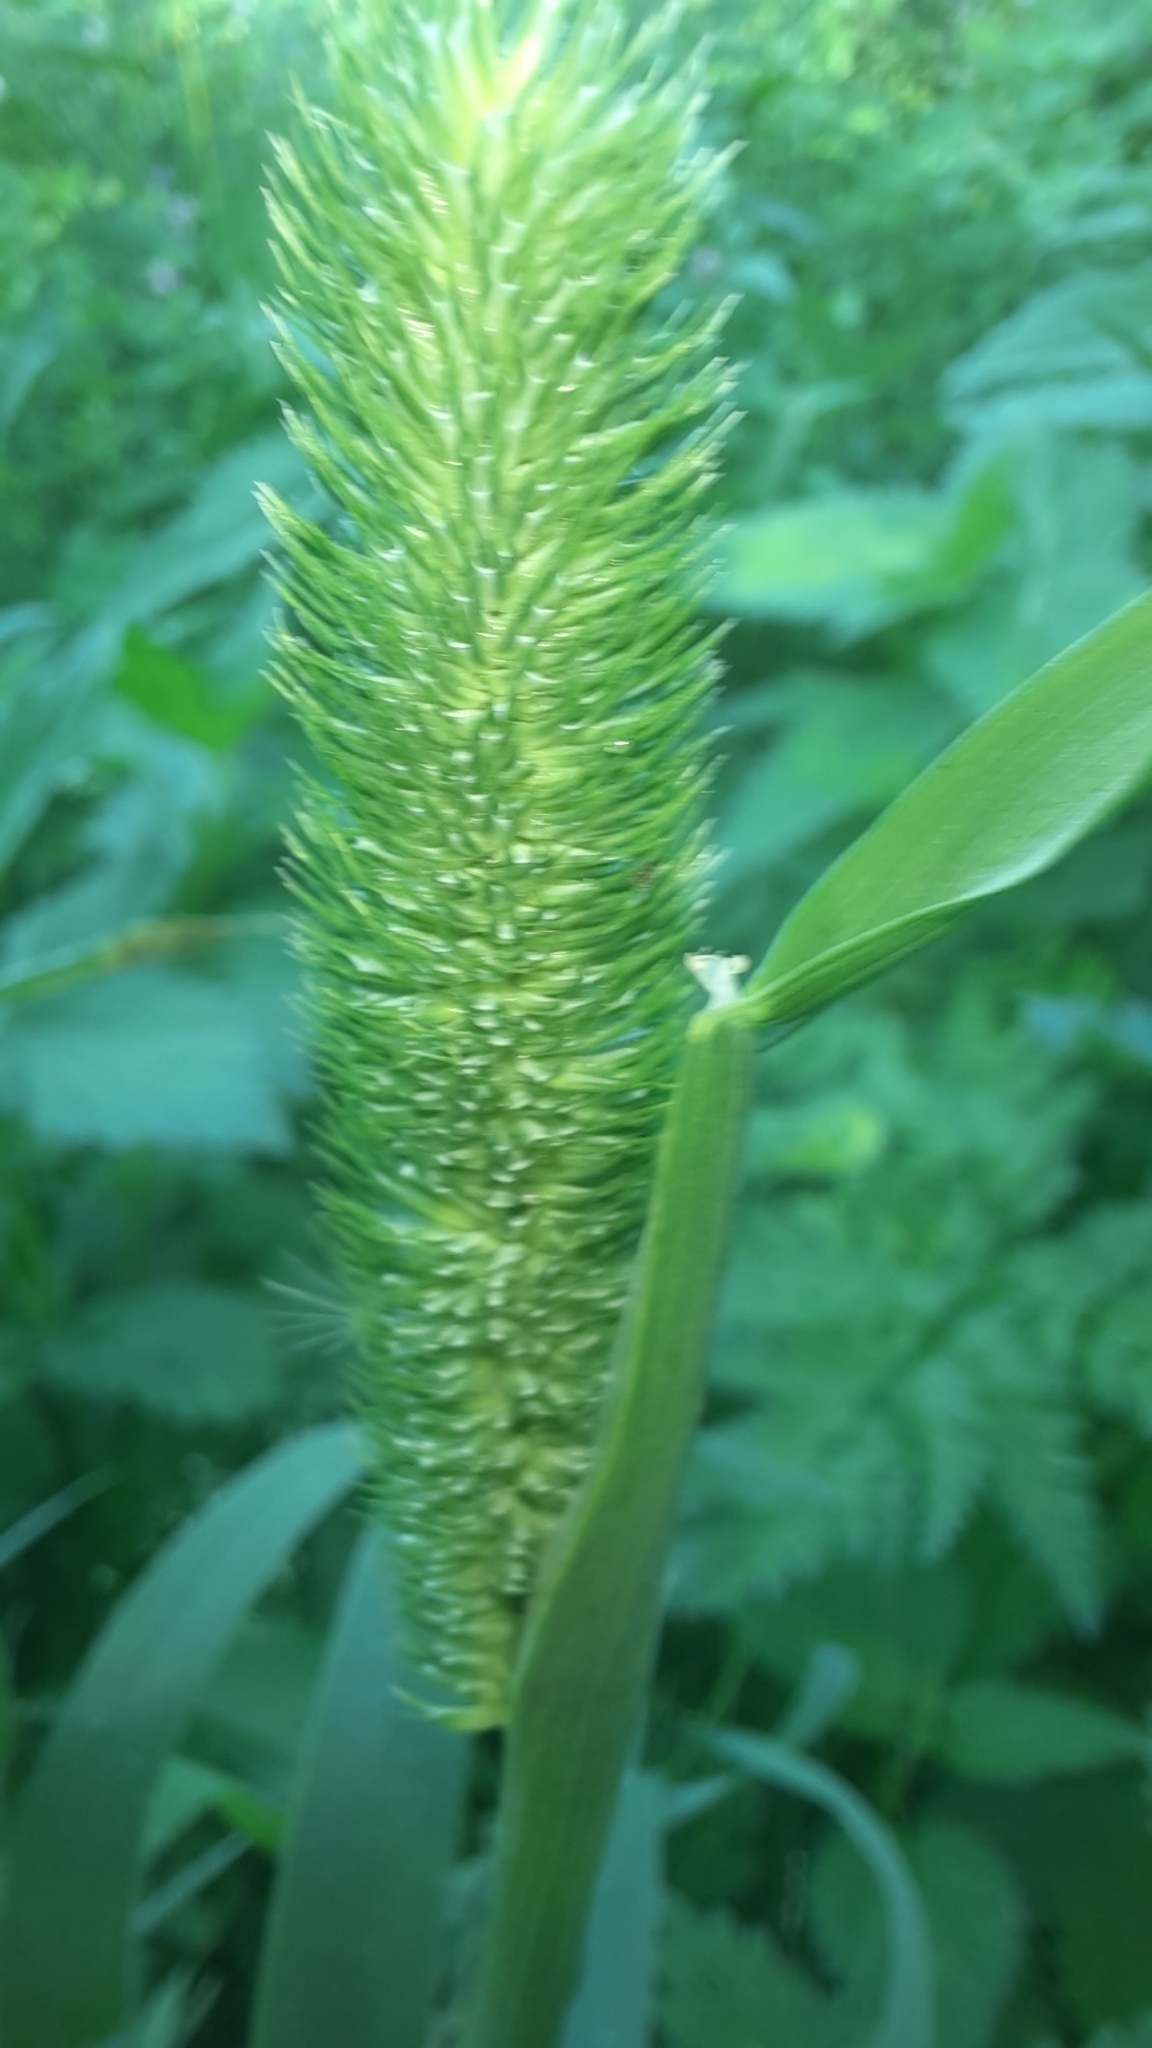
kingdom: Plantae
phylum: Tracheophyta
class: Liliopsida
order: Poales
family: Poaceae
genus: Phleum
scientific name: Phleum pratense
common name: Timothy grass
